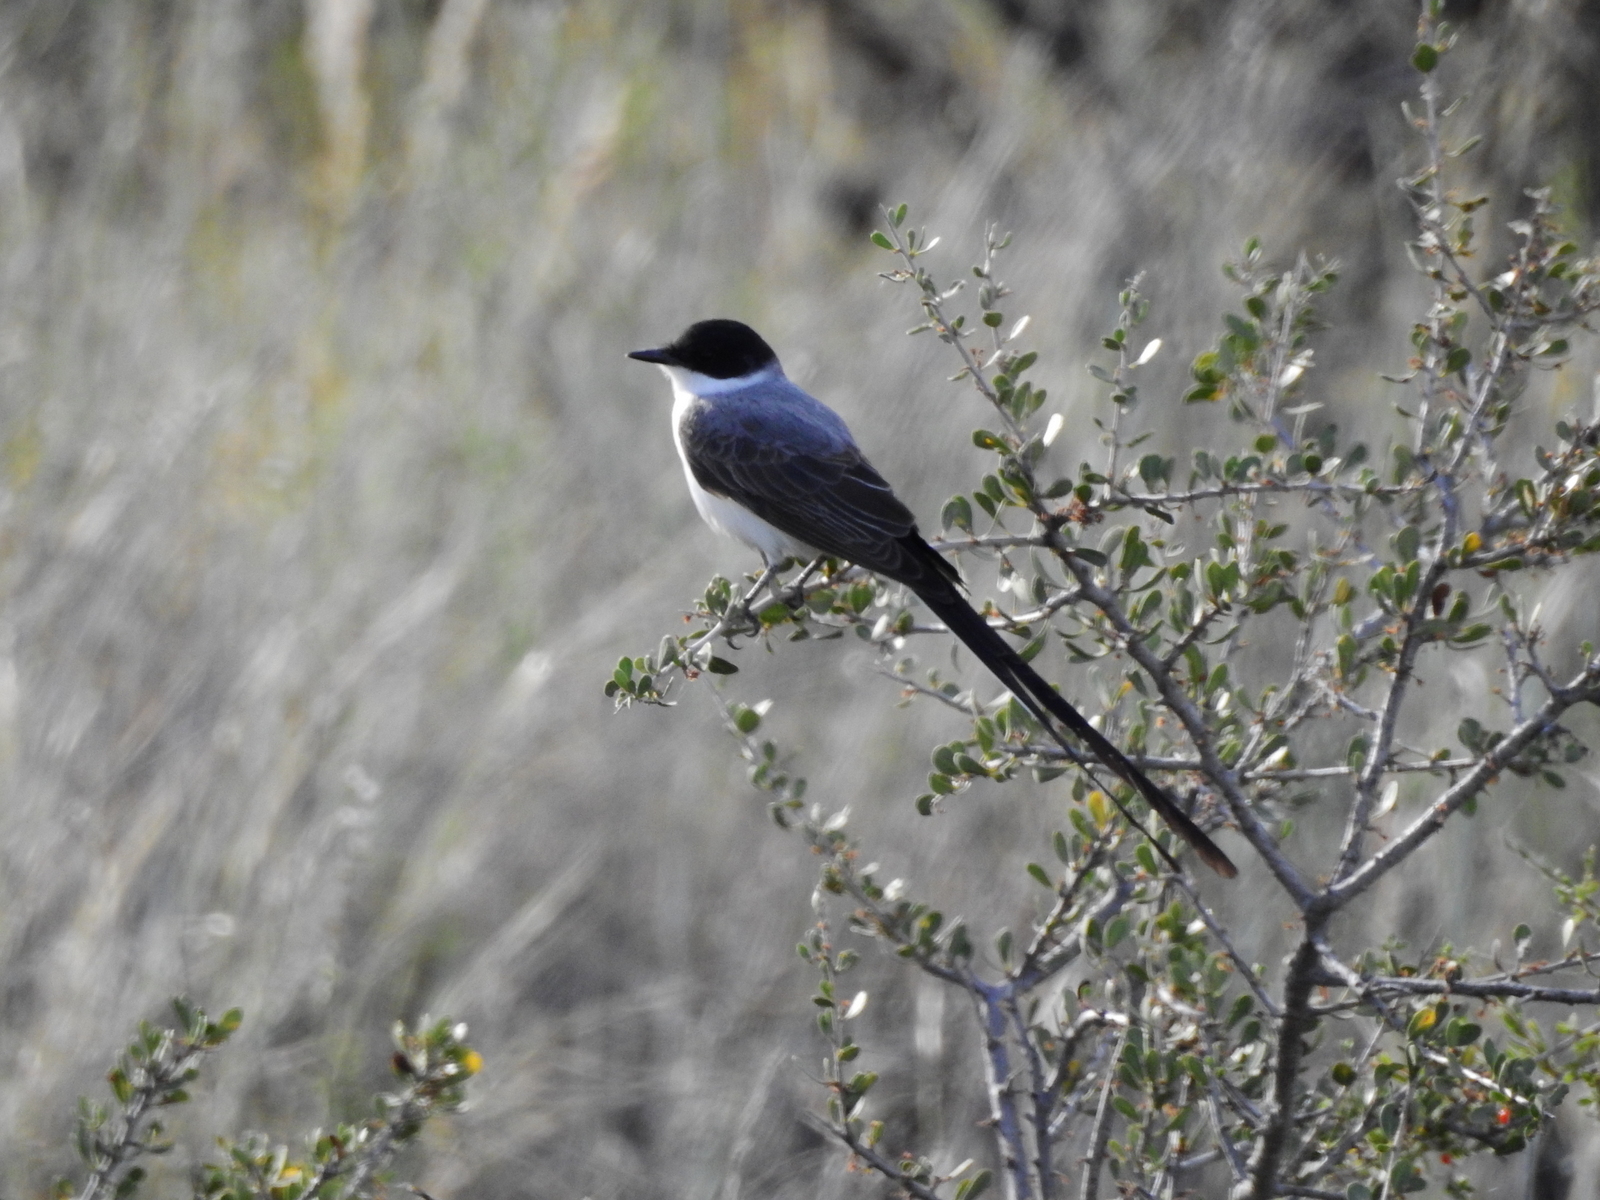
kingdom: Animalia
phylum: Chordata
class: Aves
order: Passeriformes
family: Tyrannidae
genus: Tyrannus
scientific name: Tyrannus savana
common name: Fork-tailed flycatcher
